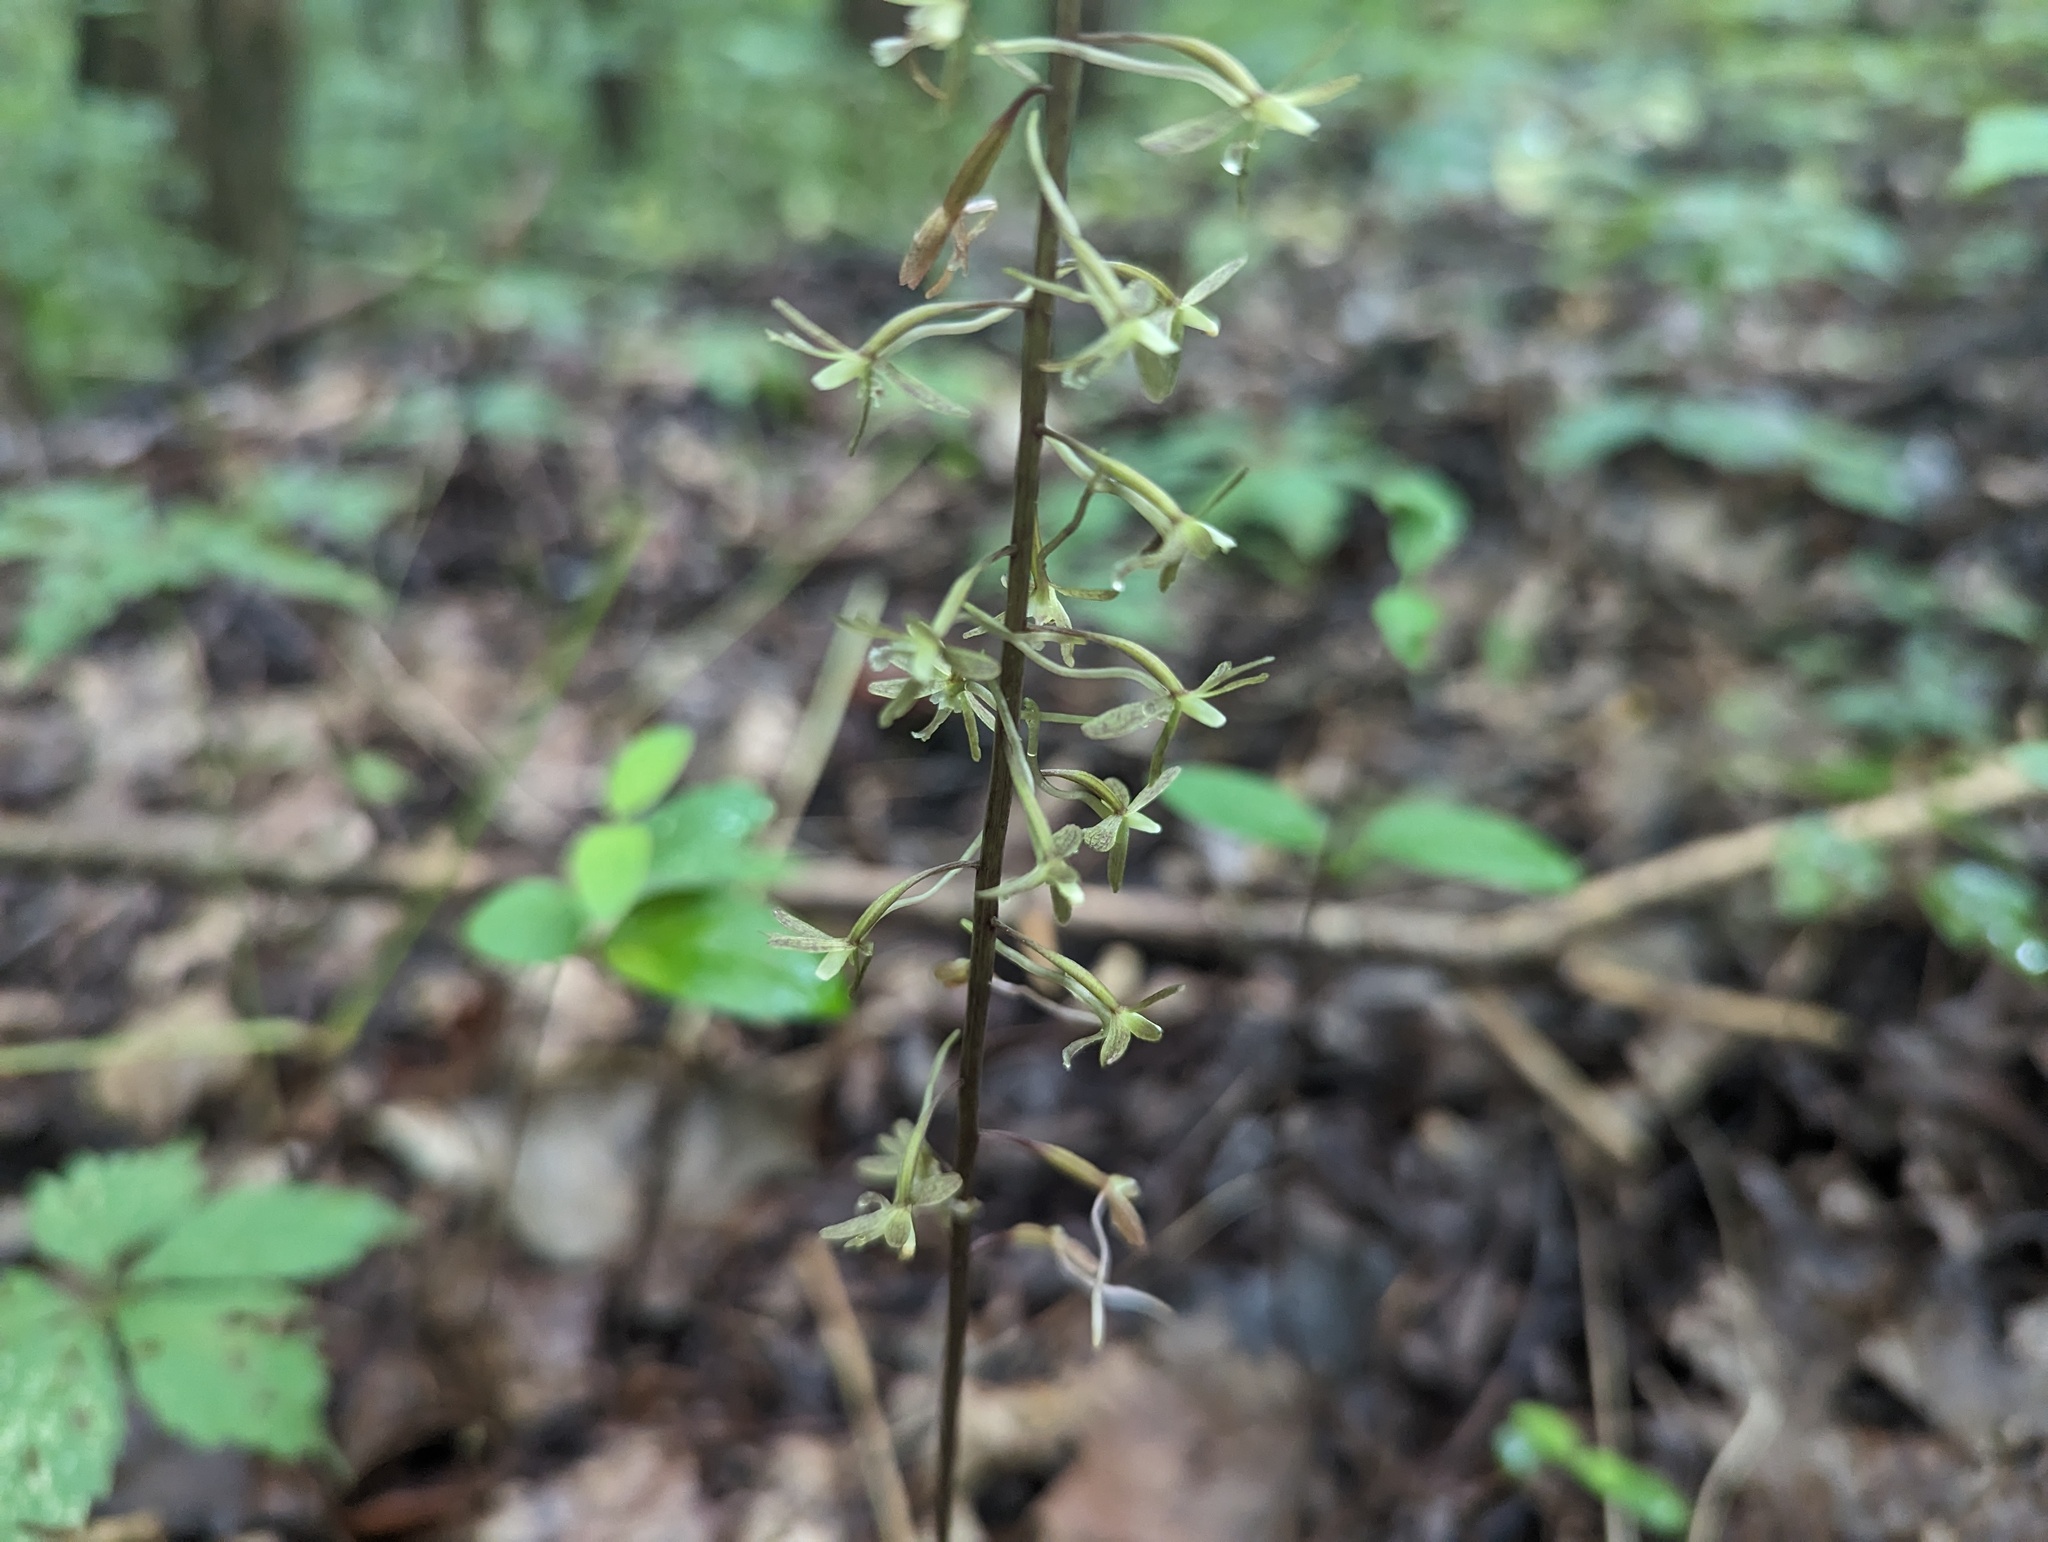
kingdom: Plantae
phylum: Tracheophyta
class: Liliopsida
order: Asparagales
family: Orchidaceae
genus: Tipularia
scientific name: Tipularia discolor
